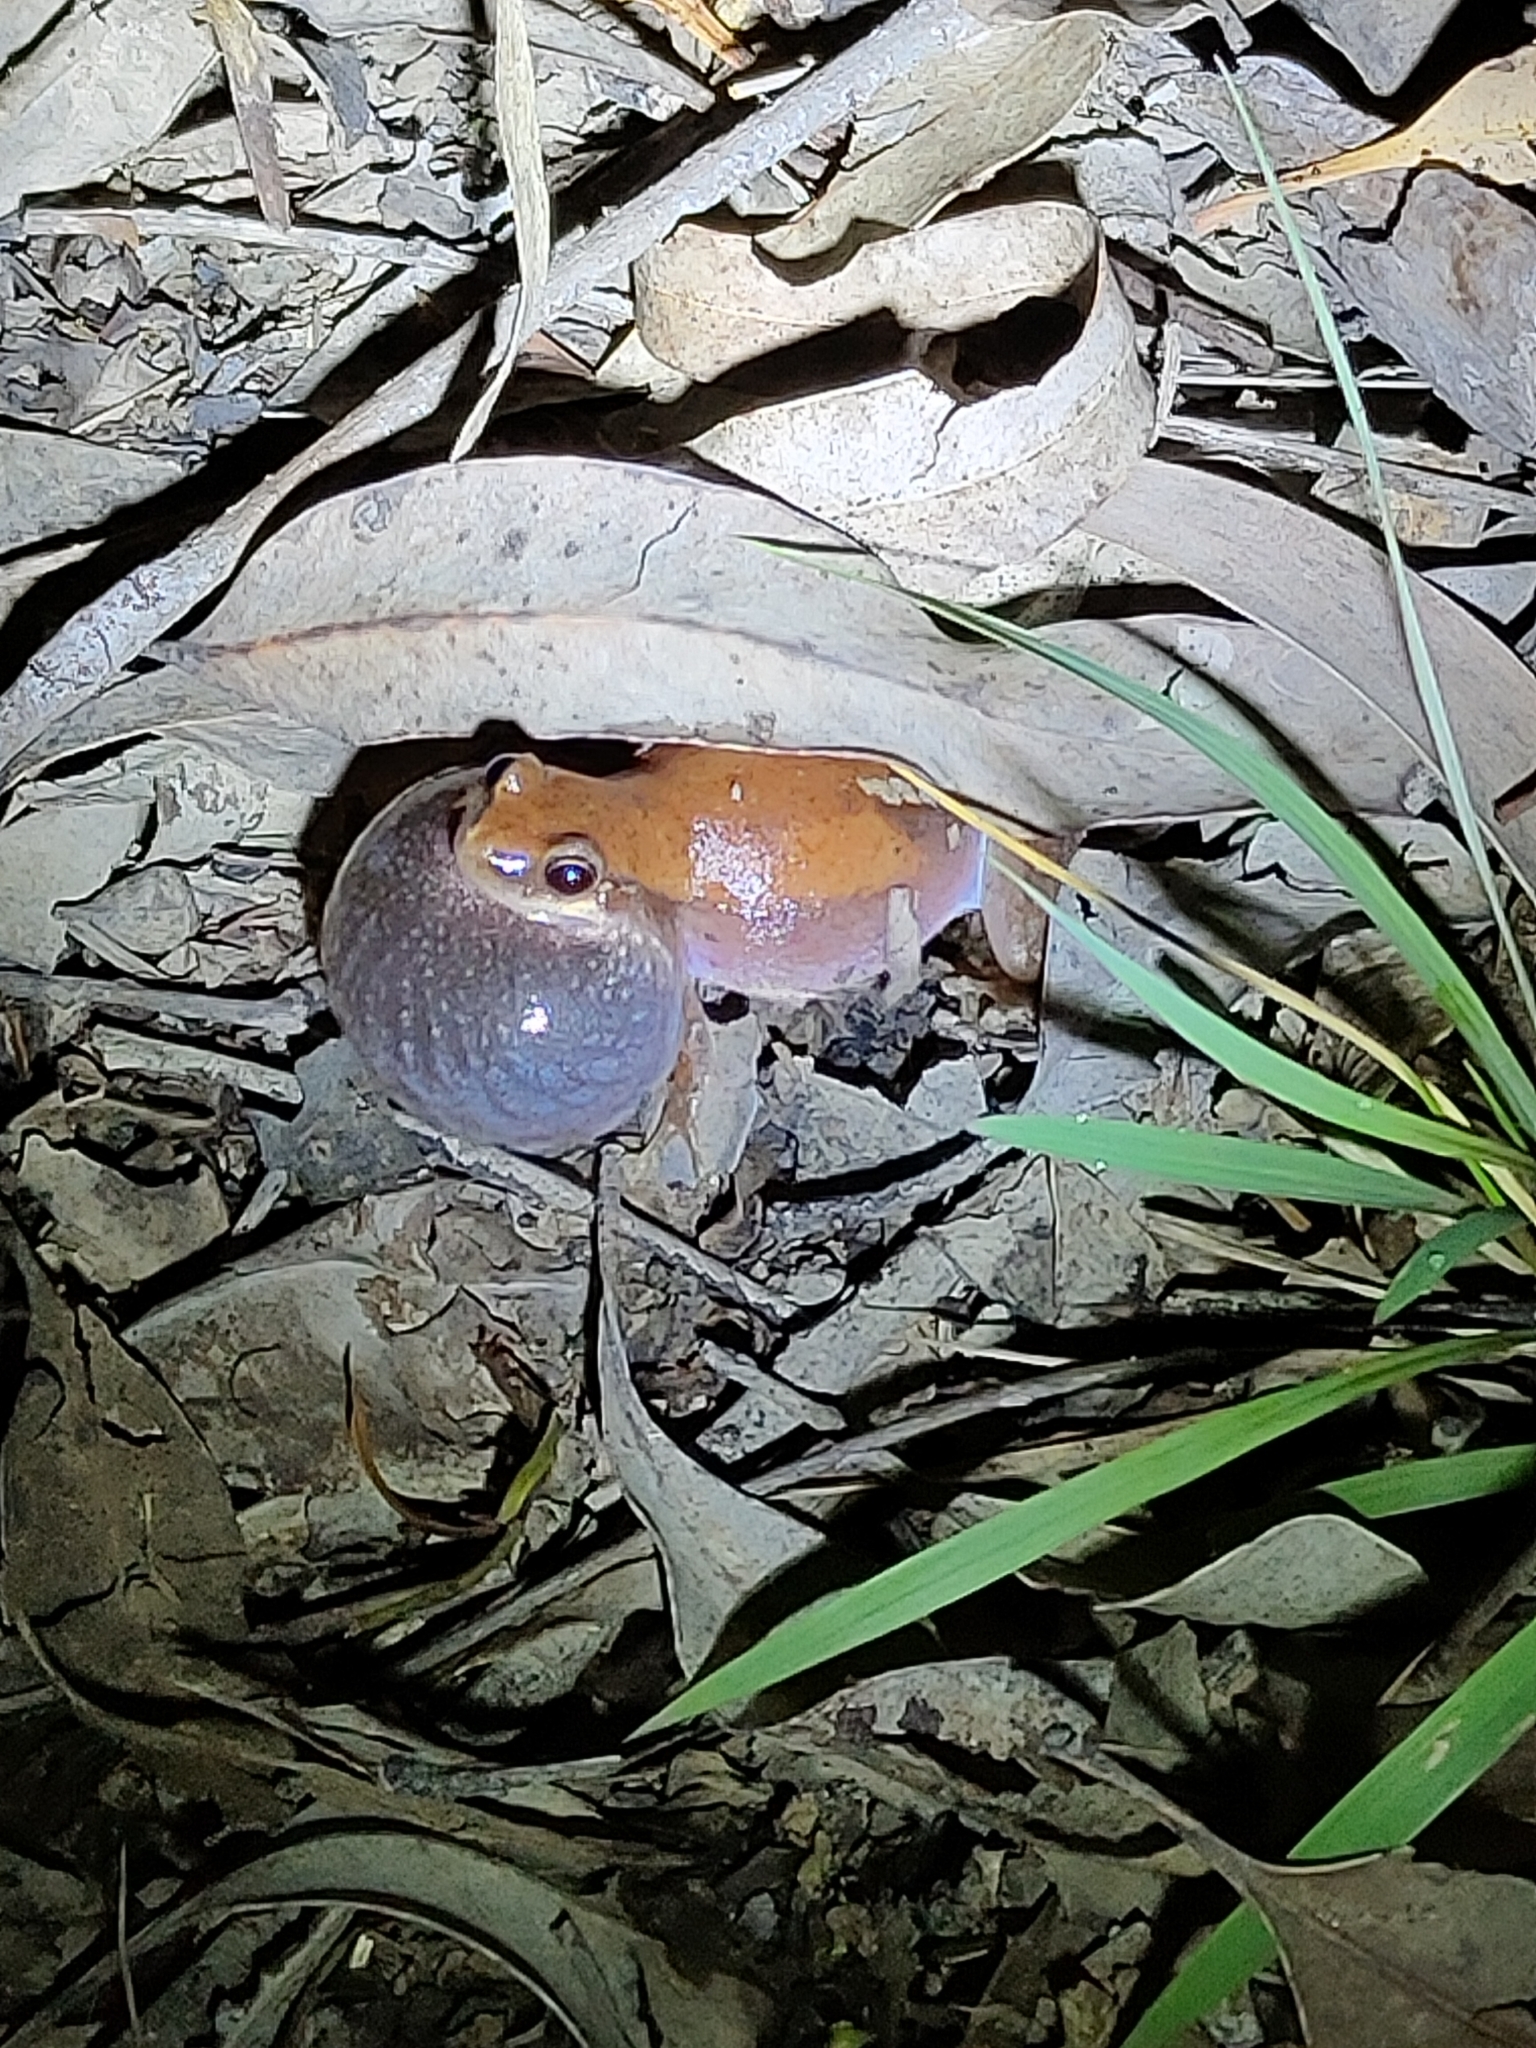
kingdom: Animalia
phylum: Chordata
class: Amphibia
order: Anura
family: Pelodryadidae
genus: Litoria
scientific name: Litoria rubella
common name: Desert tree frog
